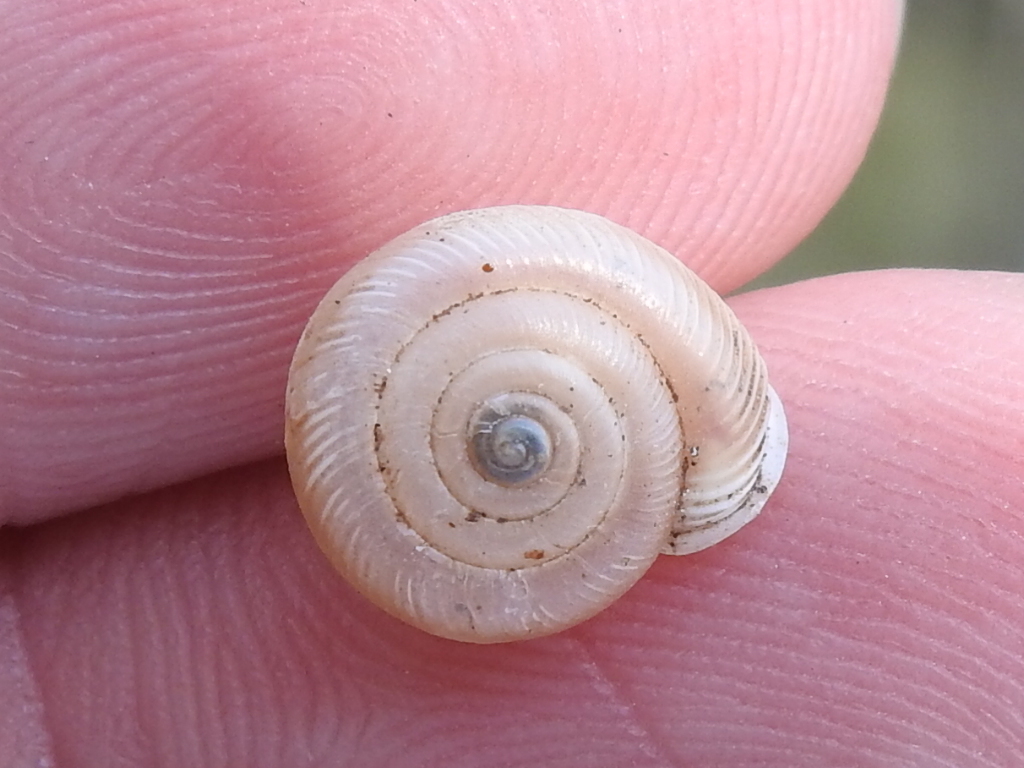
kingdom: Animalia
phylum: Mollusca
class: Gastropoda
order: Stylommatophora
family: Polygyridae
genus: Linisa
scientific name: Linisa texasiana
